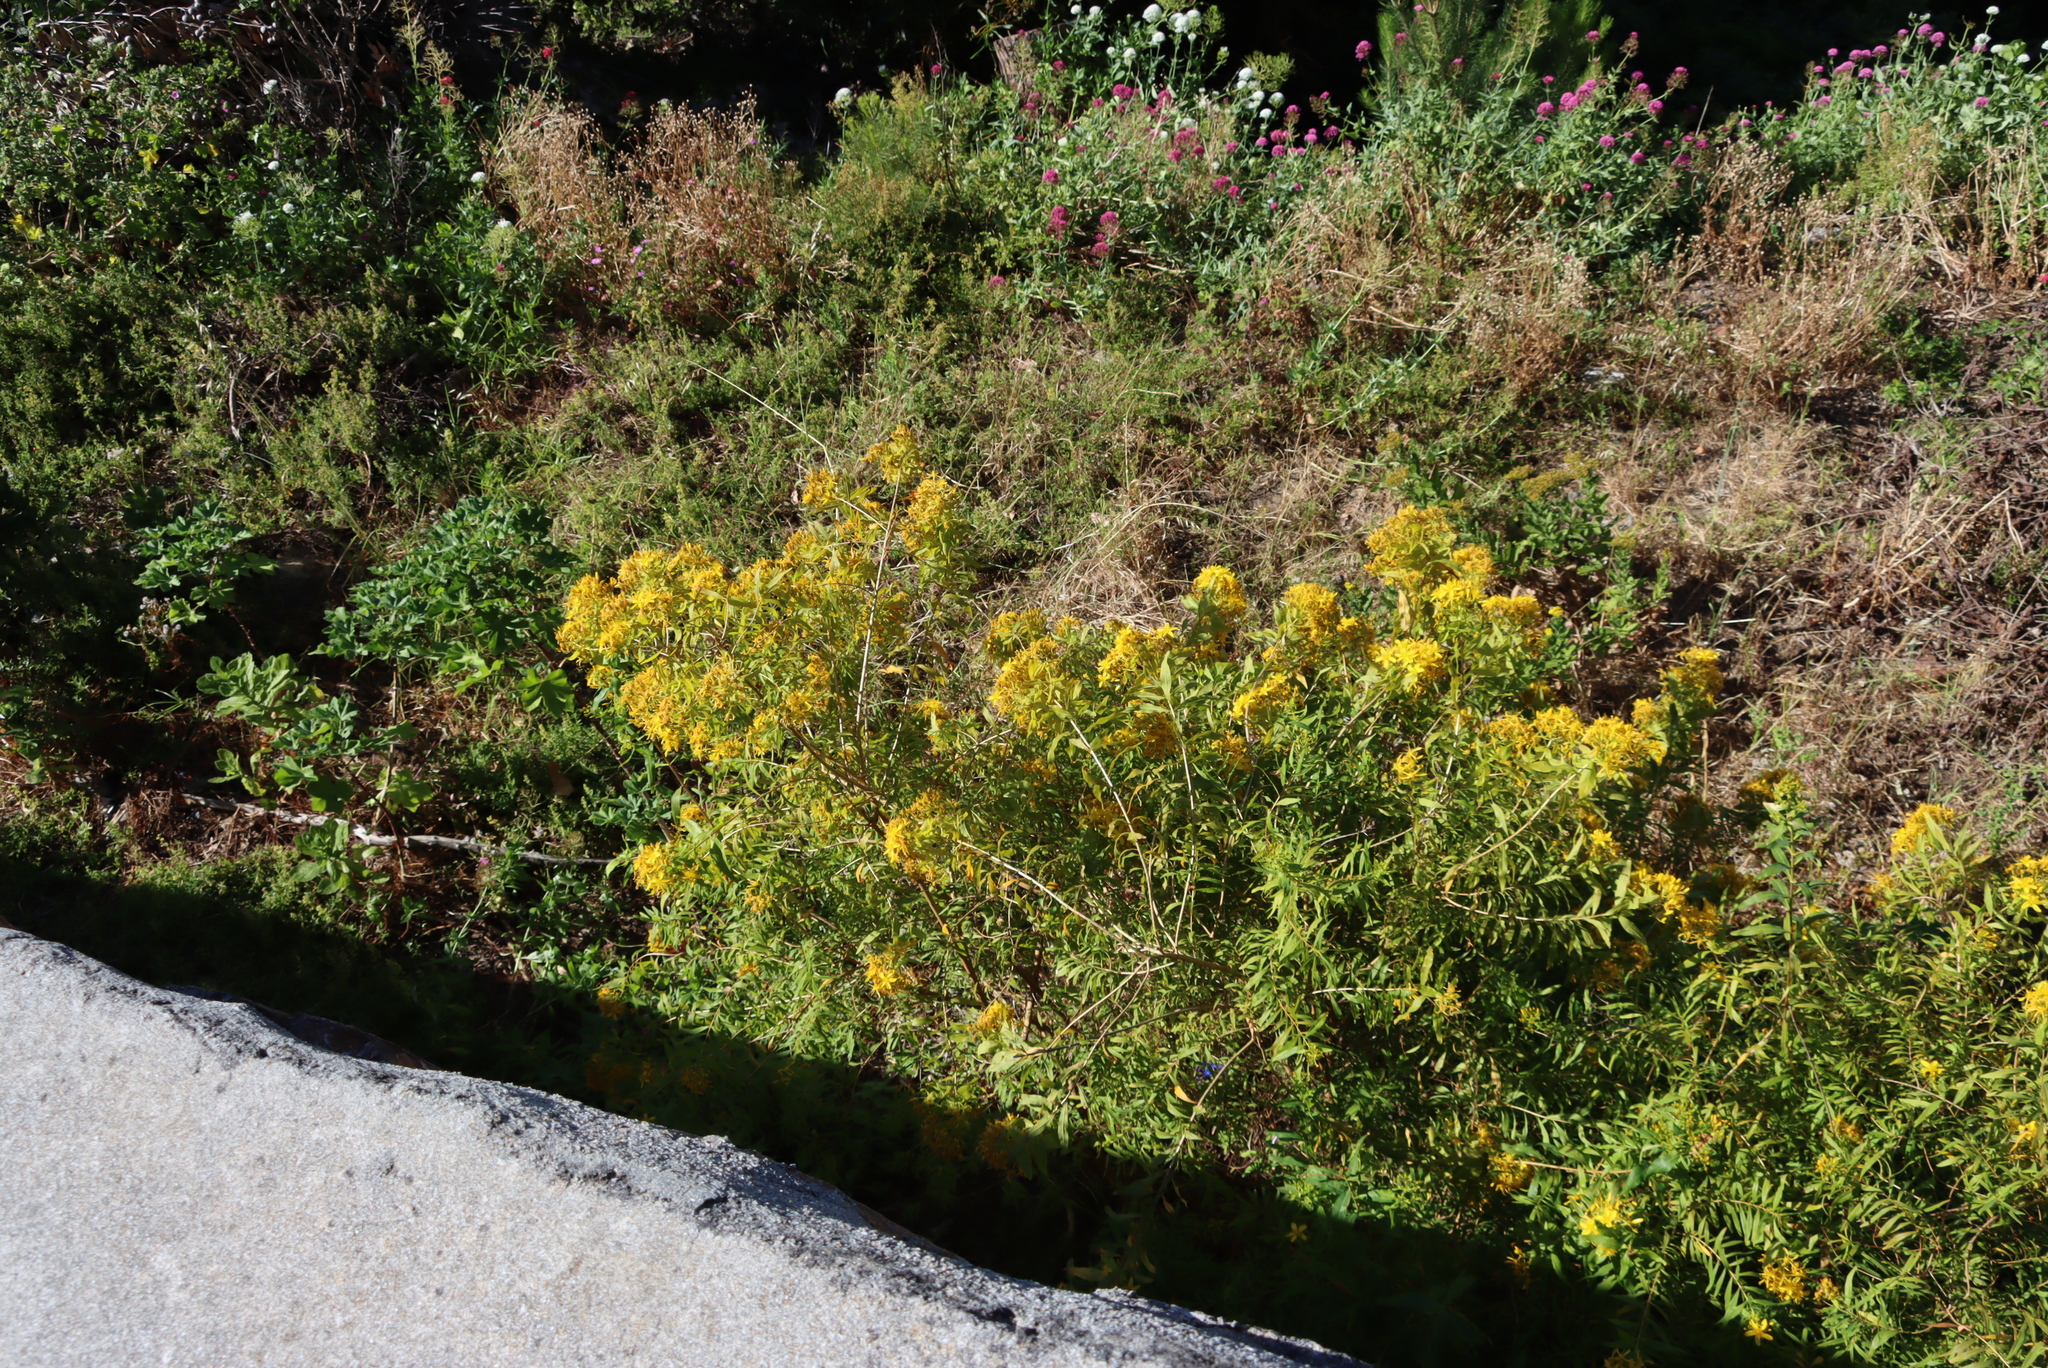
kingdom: Plantae
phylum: Tracheophyta
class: Magnoliopsida
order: Malpighiales
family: Hypericaceae
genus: Hypericum
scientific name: Hypericum canariense
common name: Canary island st. johnswort
